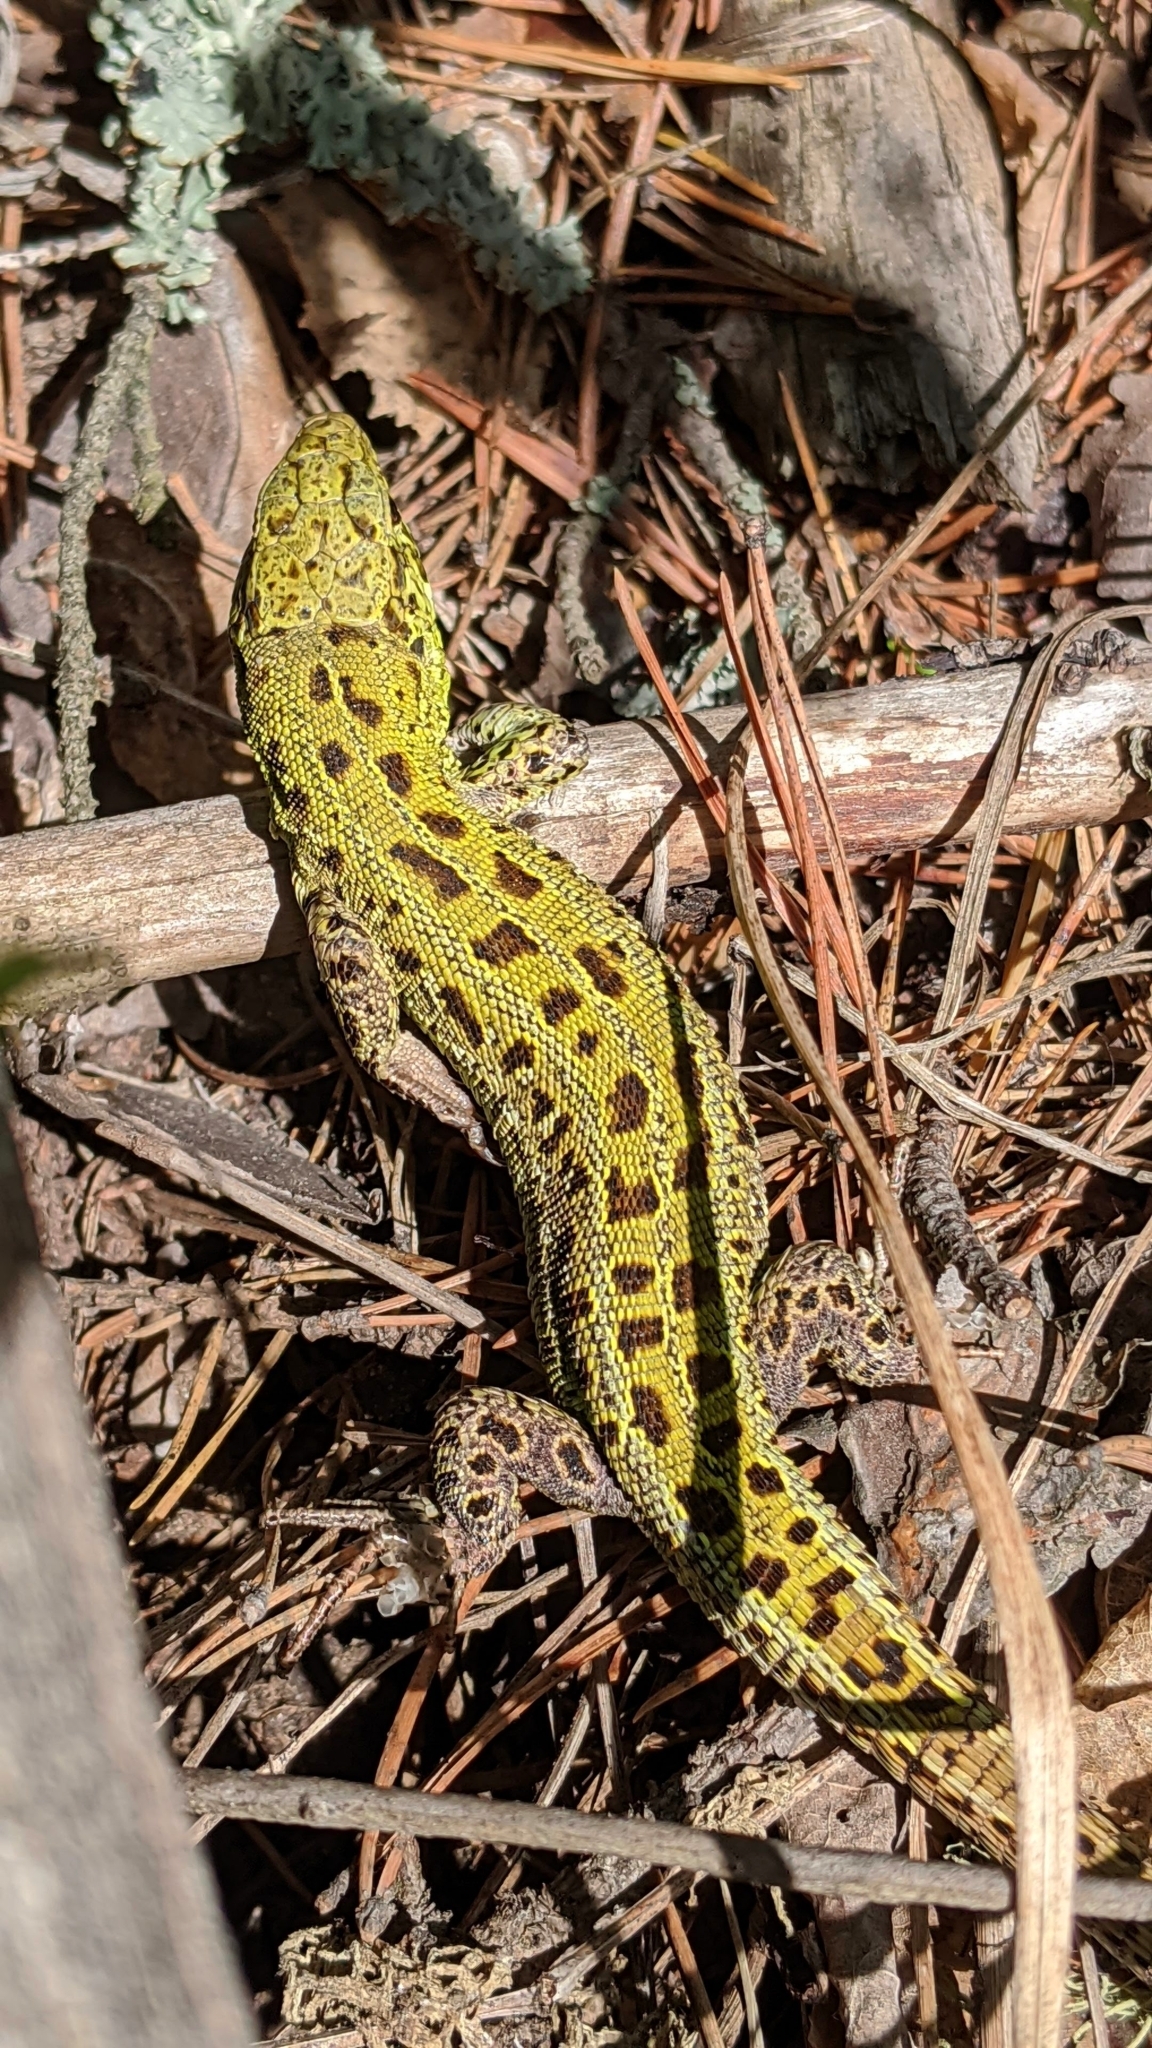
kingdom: Animalia
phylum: Chordata
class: Squamata
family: Lacertidae
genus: Lacerta
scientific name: Lacerta agilis
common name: Sand lizard
